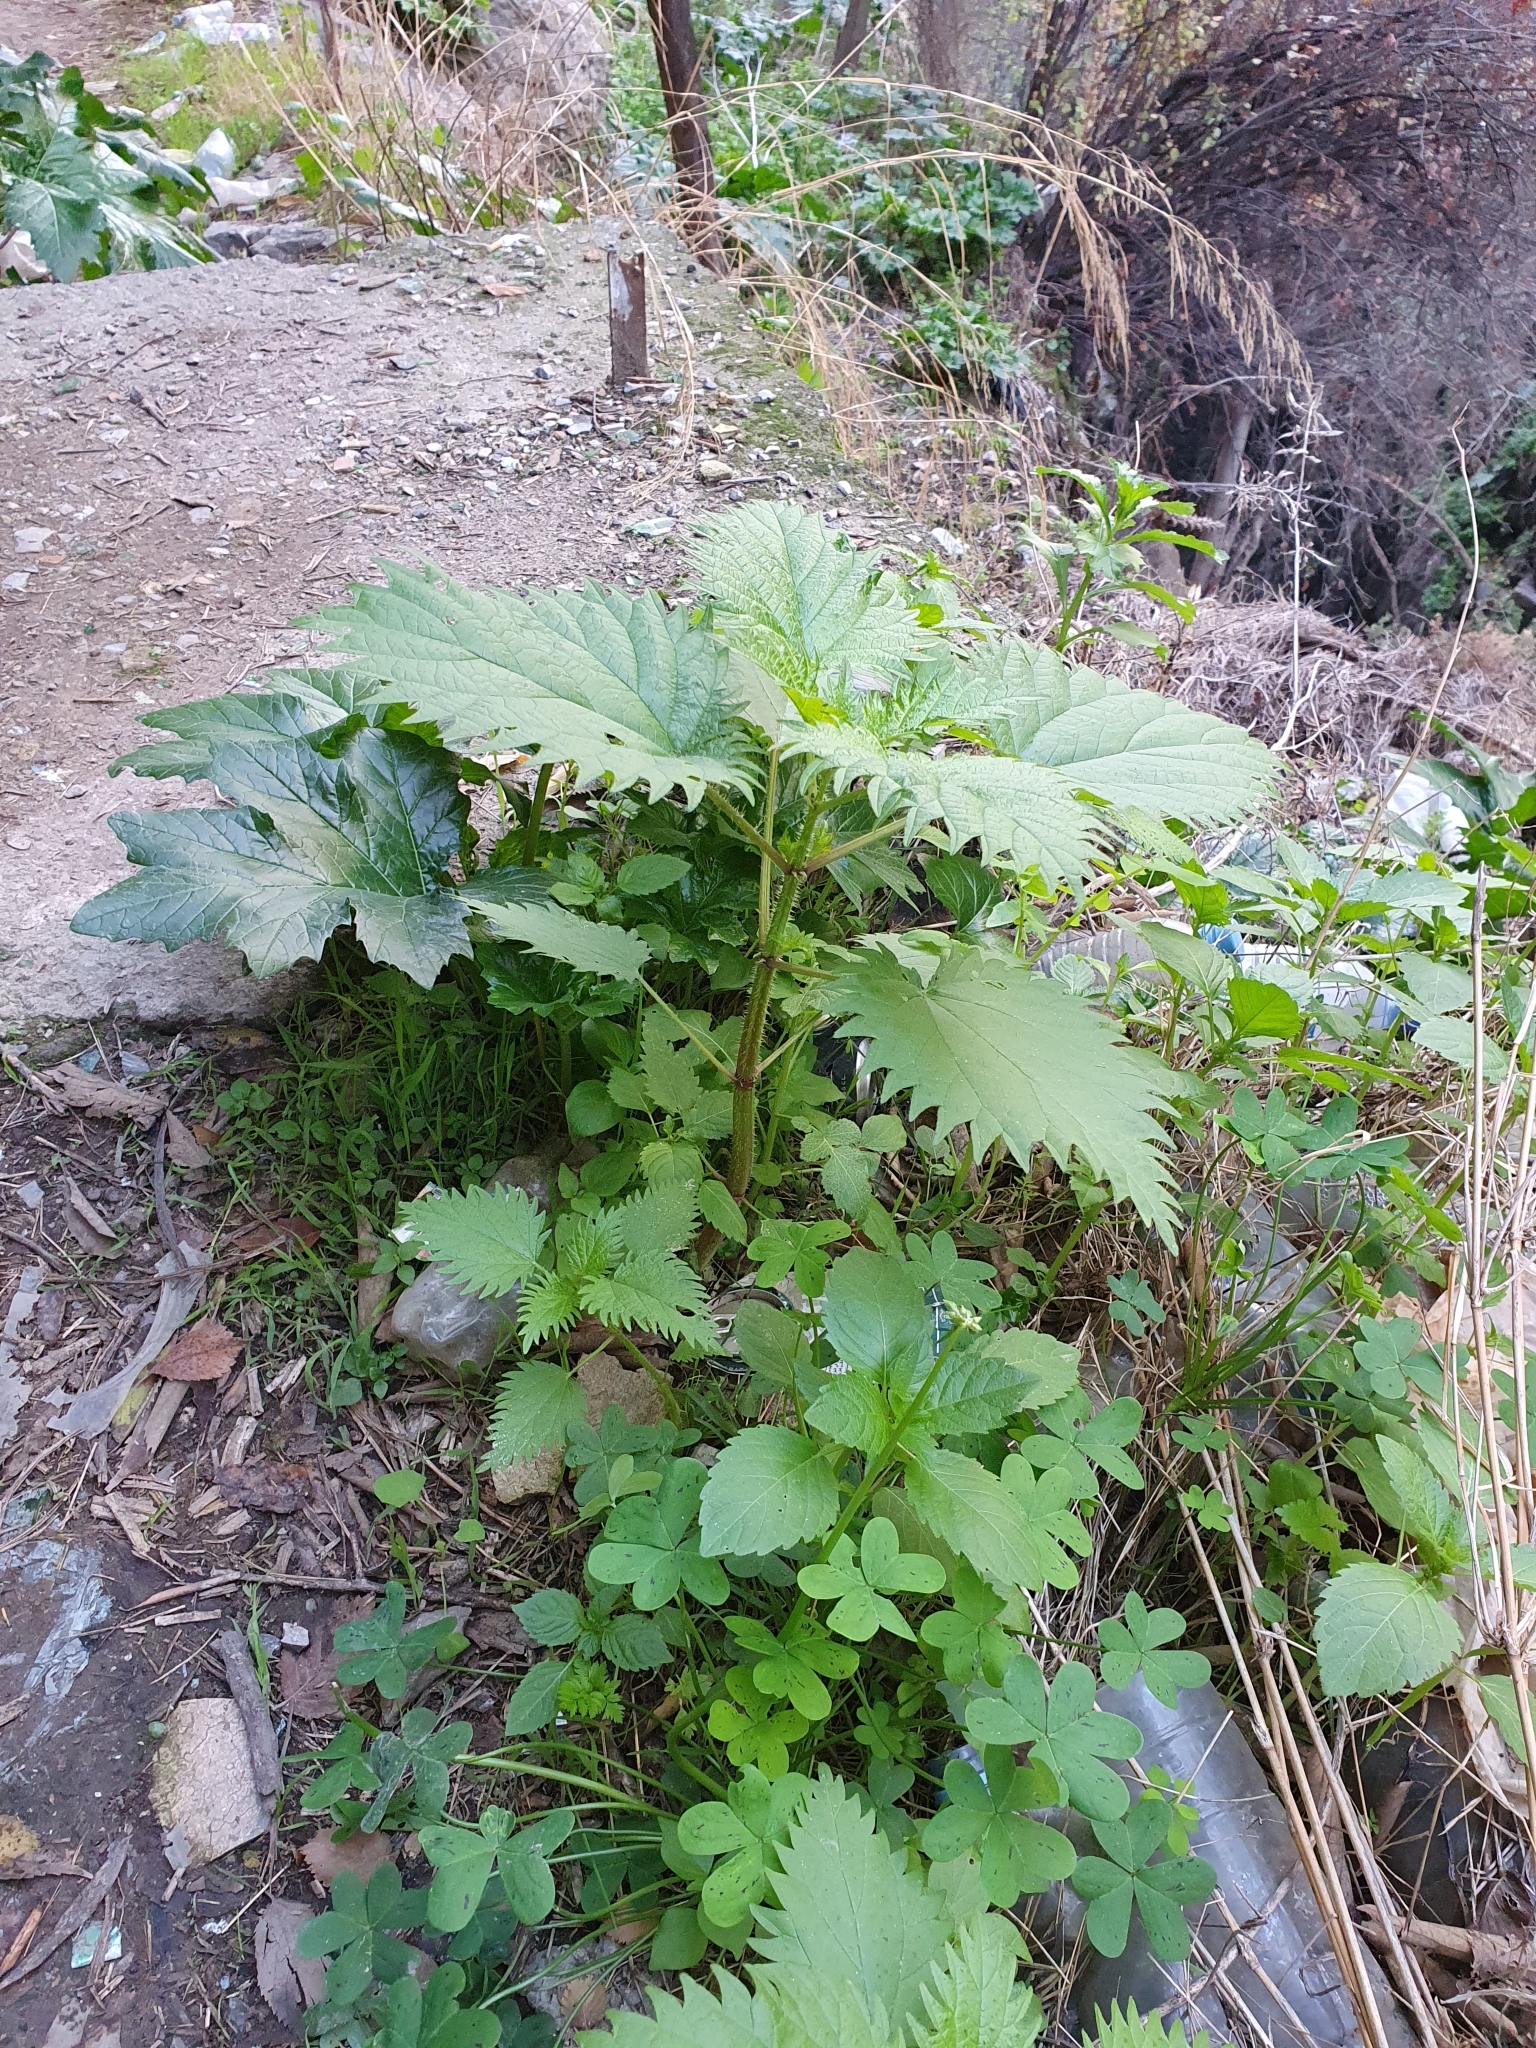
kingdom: Plantae
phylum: Tracheophyta
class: Magnoliopsida
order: Rosales
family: Urticaceae
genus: Urtica
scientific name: Urtica pilulifera
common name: Roman nettle
